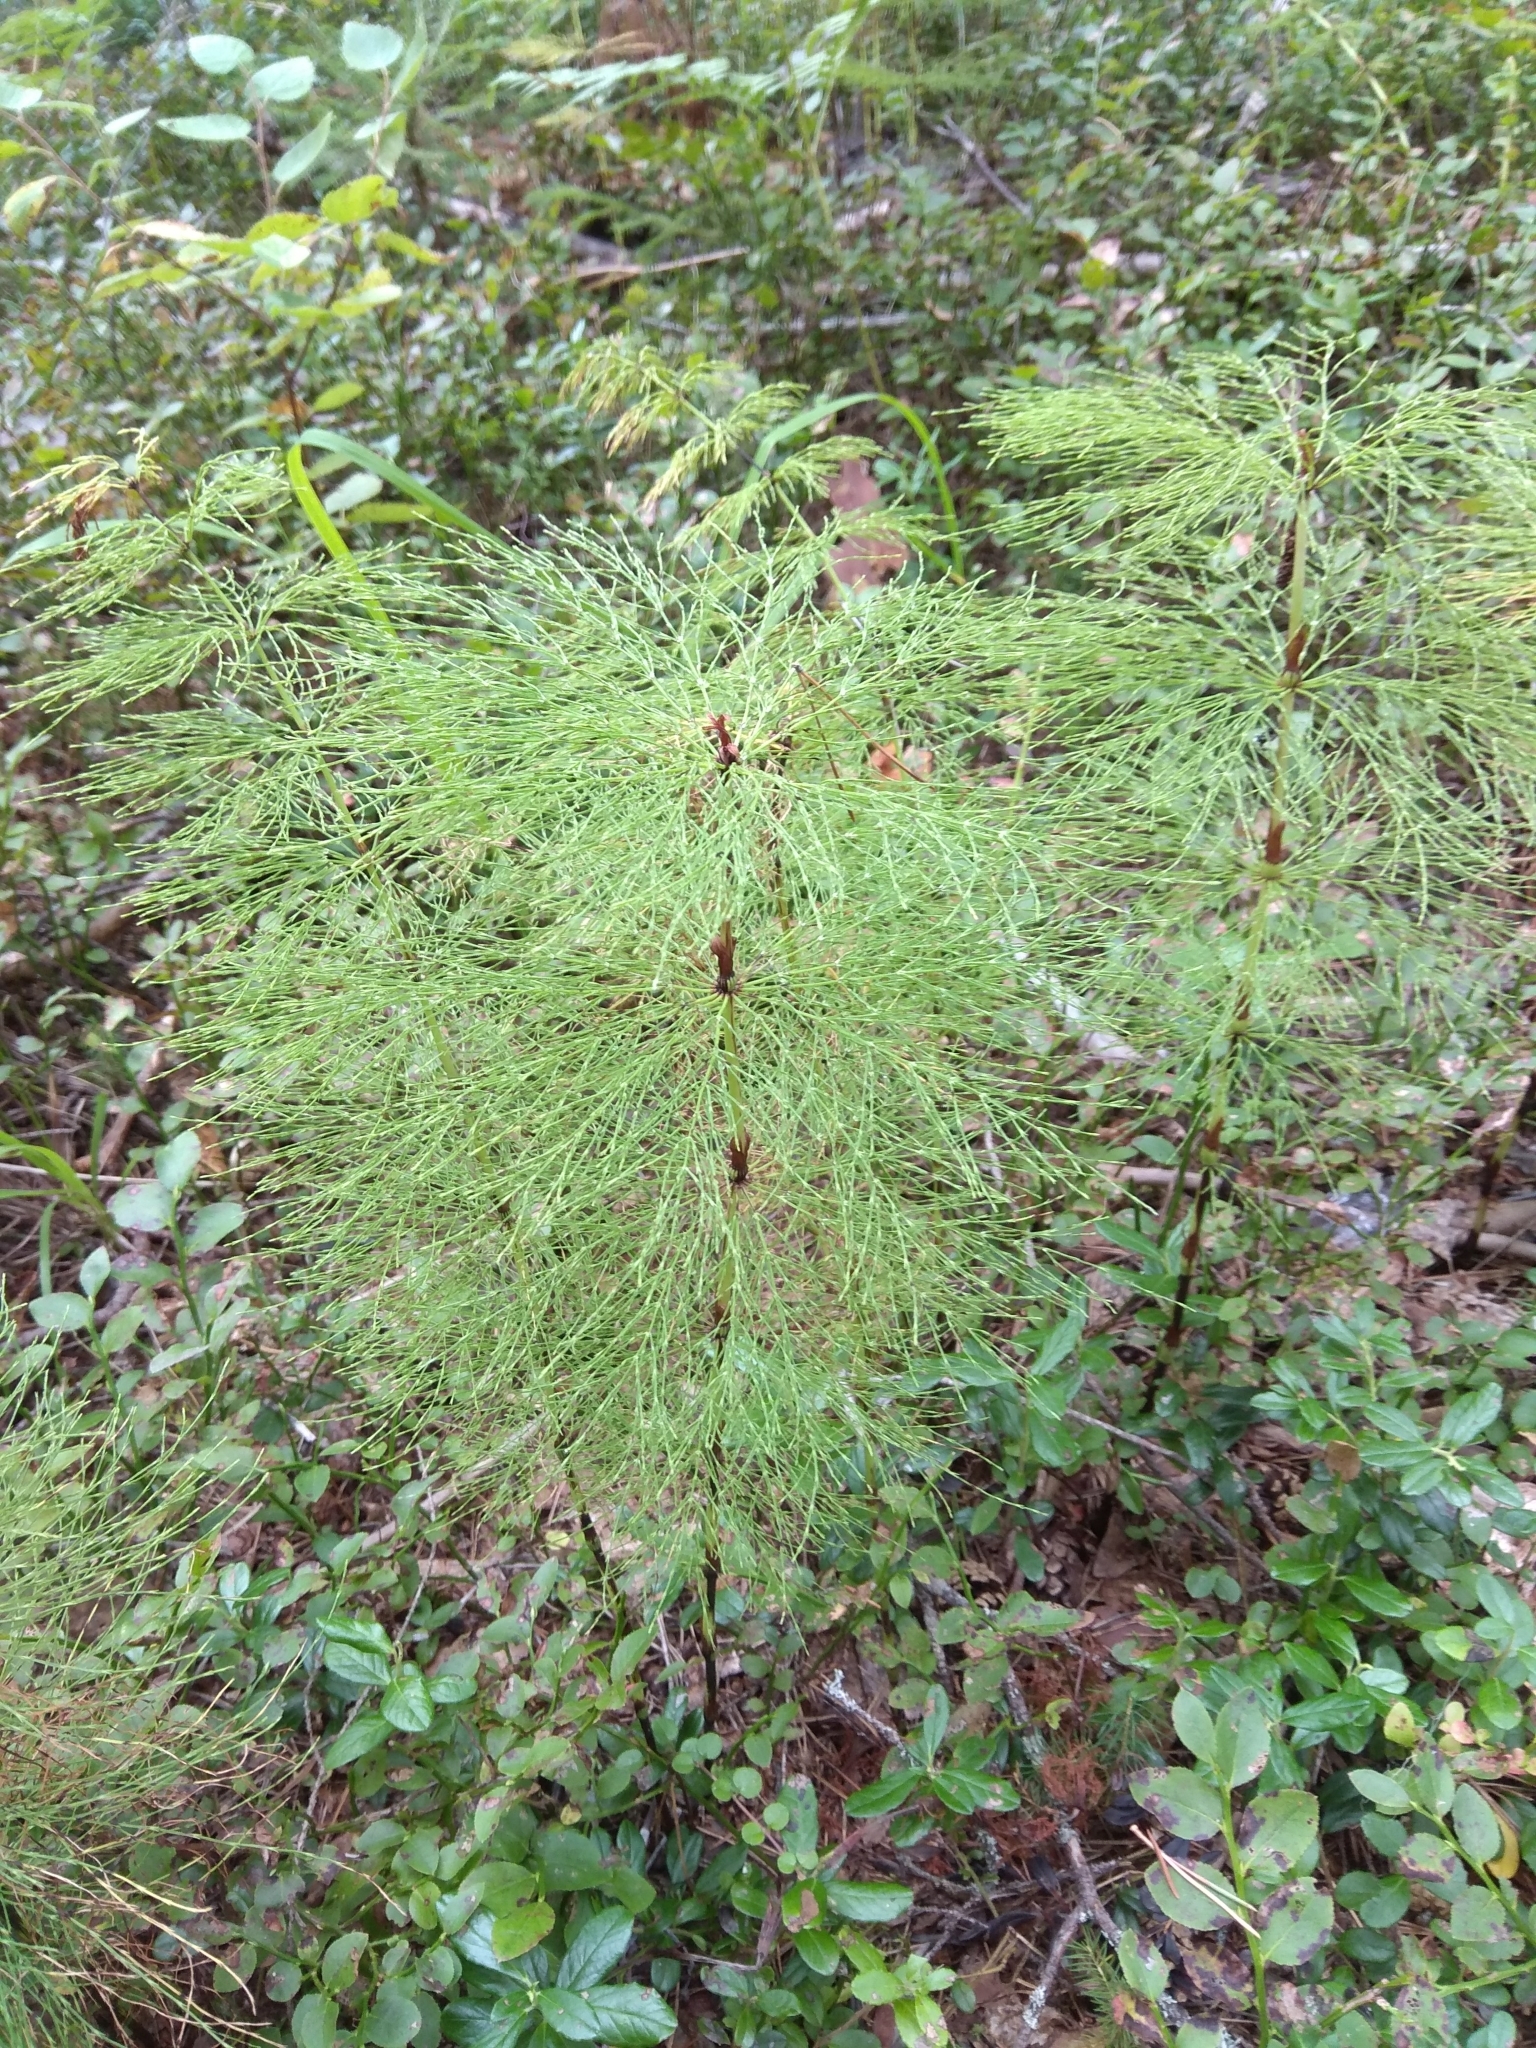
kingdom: Plantae
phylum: Tracheophyta
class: Polypodiopsida
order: Equisetales
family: Equisetaceae
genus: Equisetum
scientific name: Equisetum sylvaticum
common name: Wood horsetail
